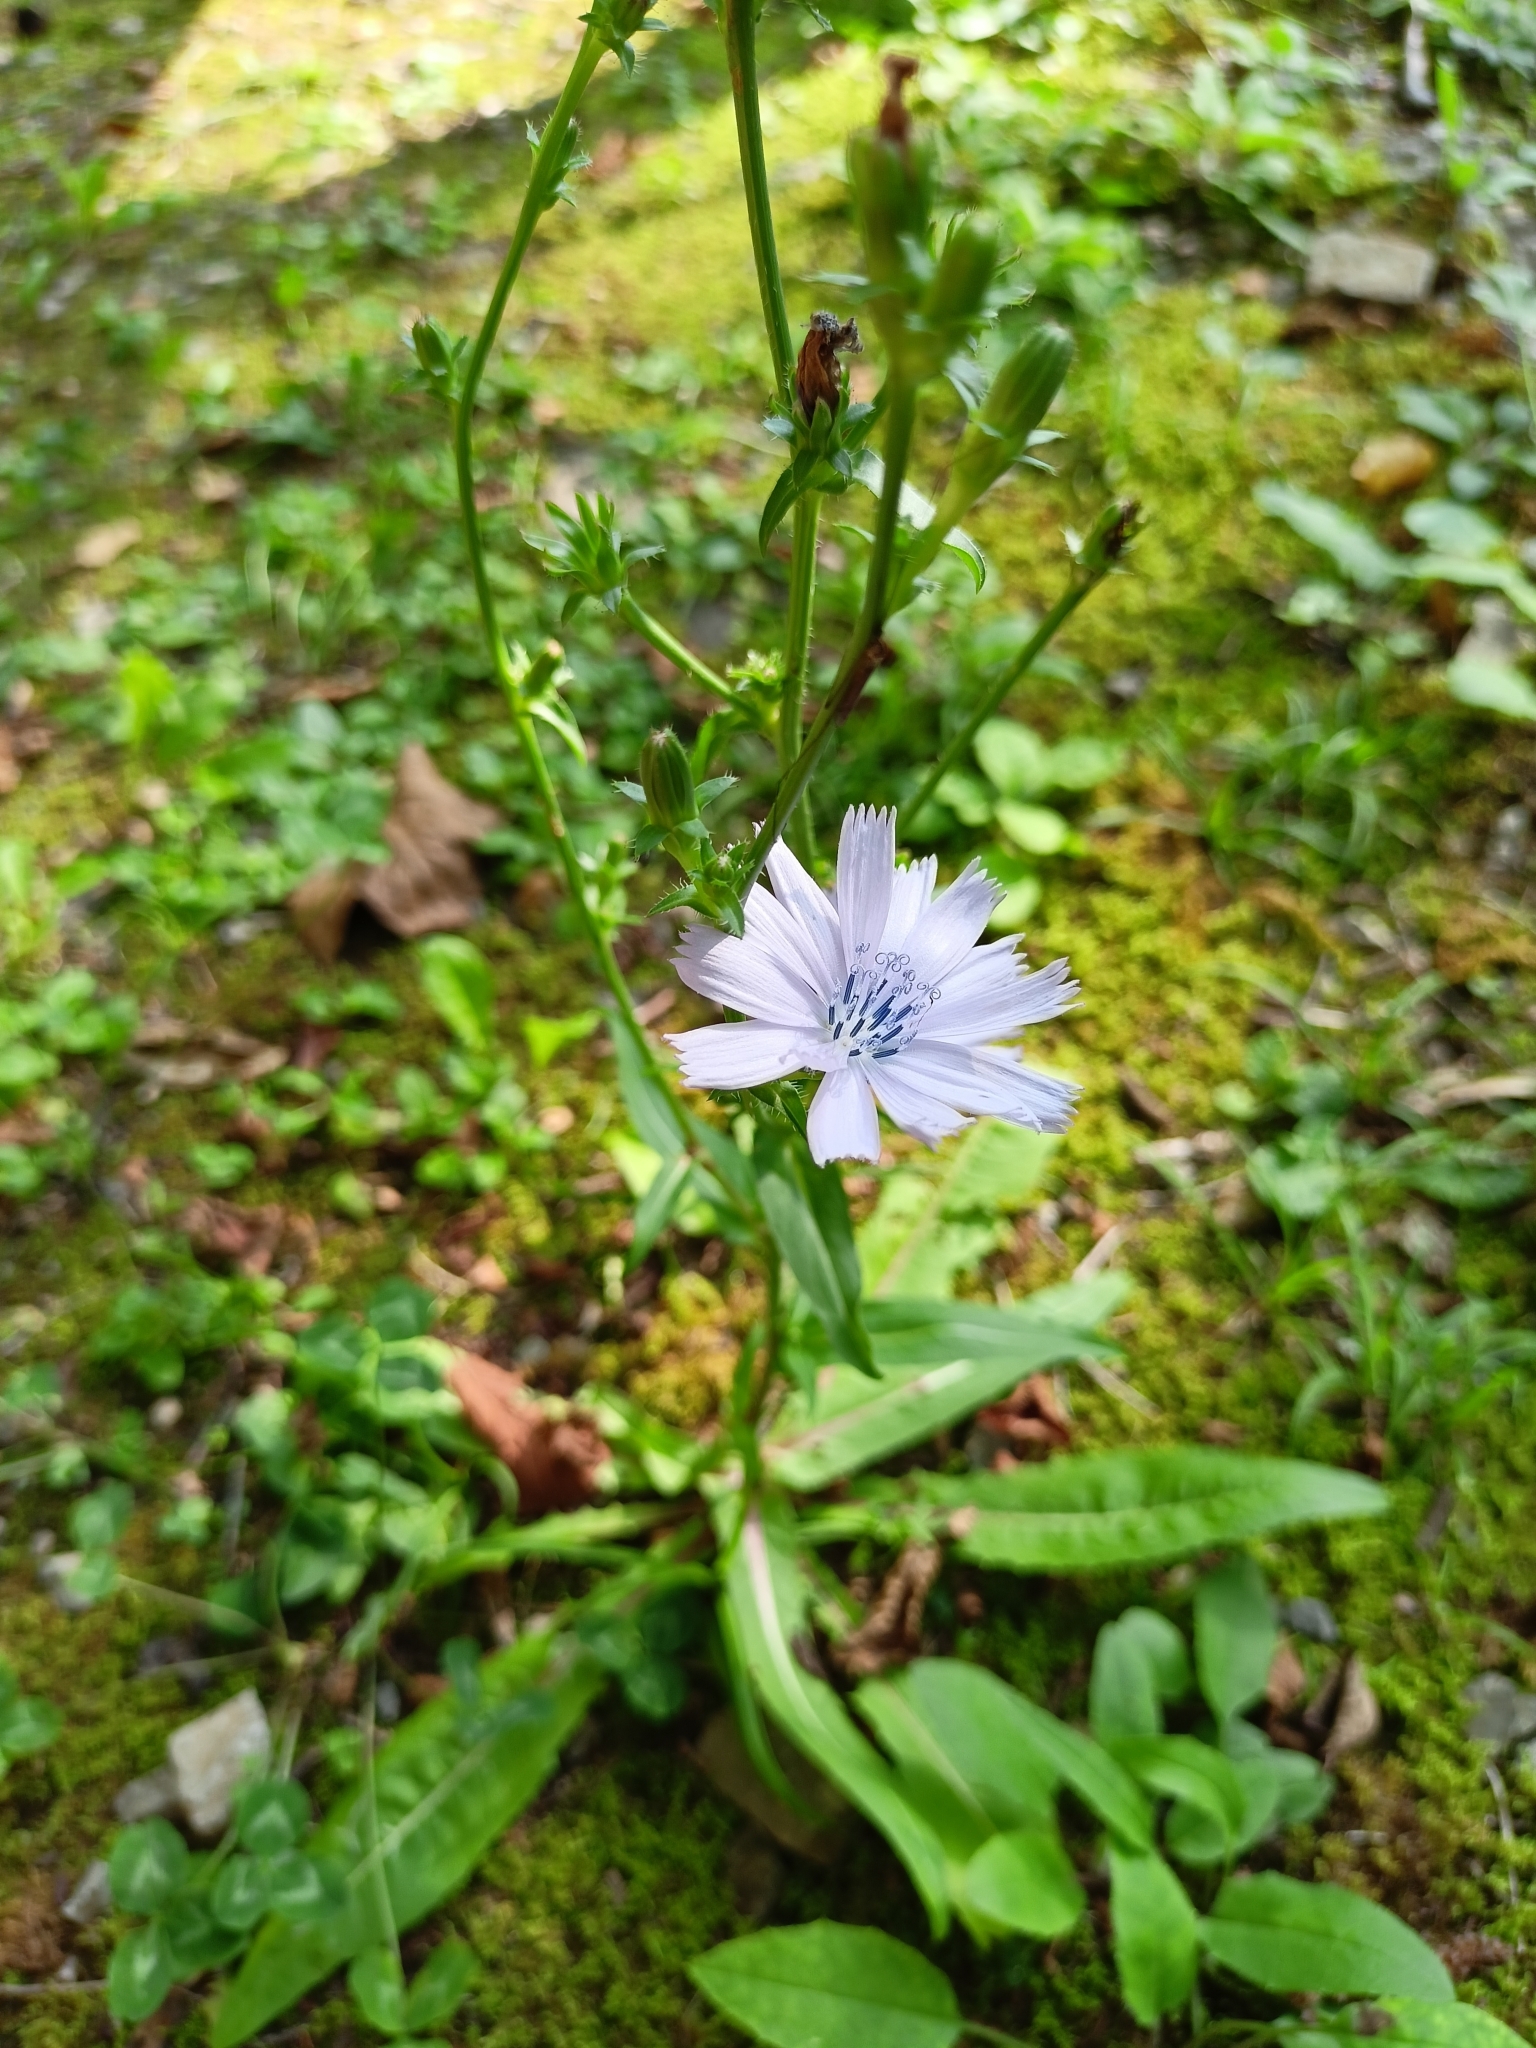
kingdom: Plantae
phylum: Tracheophyta
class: Magnoliopsida
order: Asterales
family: Asteraceae
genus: Cichorium
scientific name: Cichorium intybus
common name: Chicory
